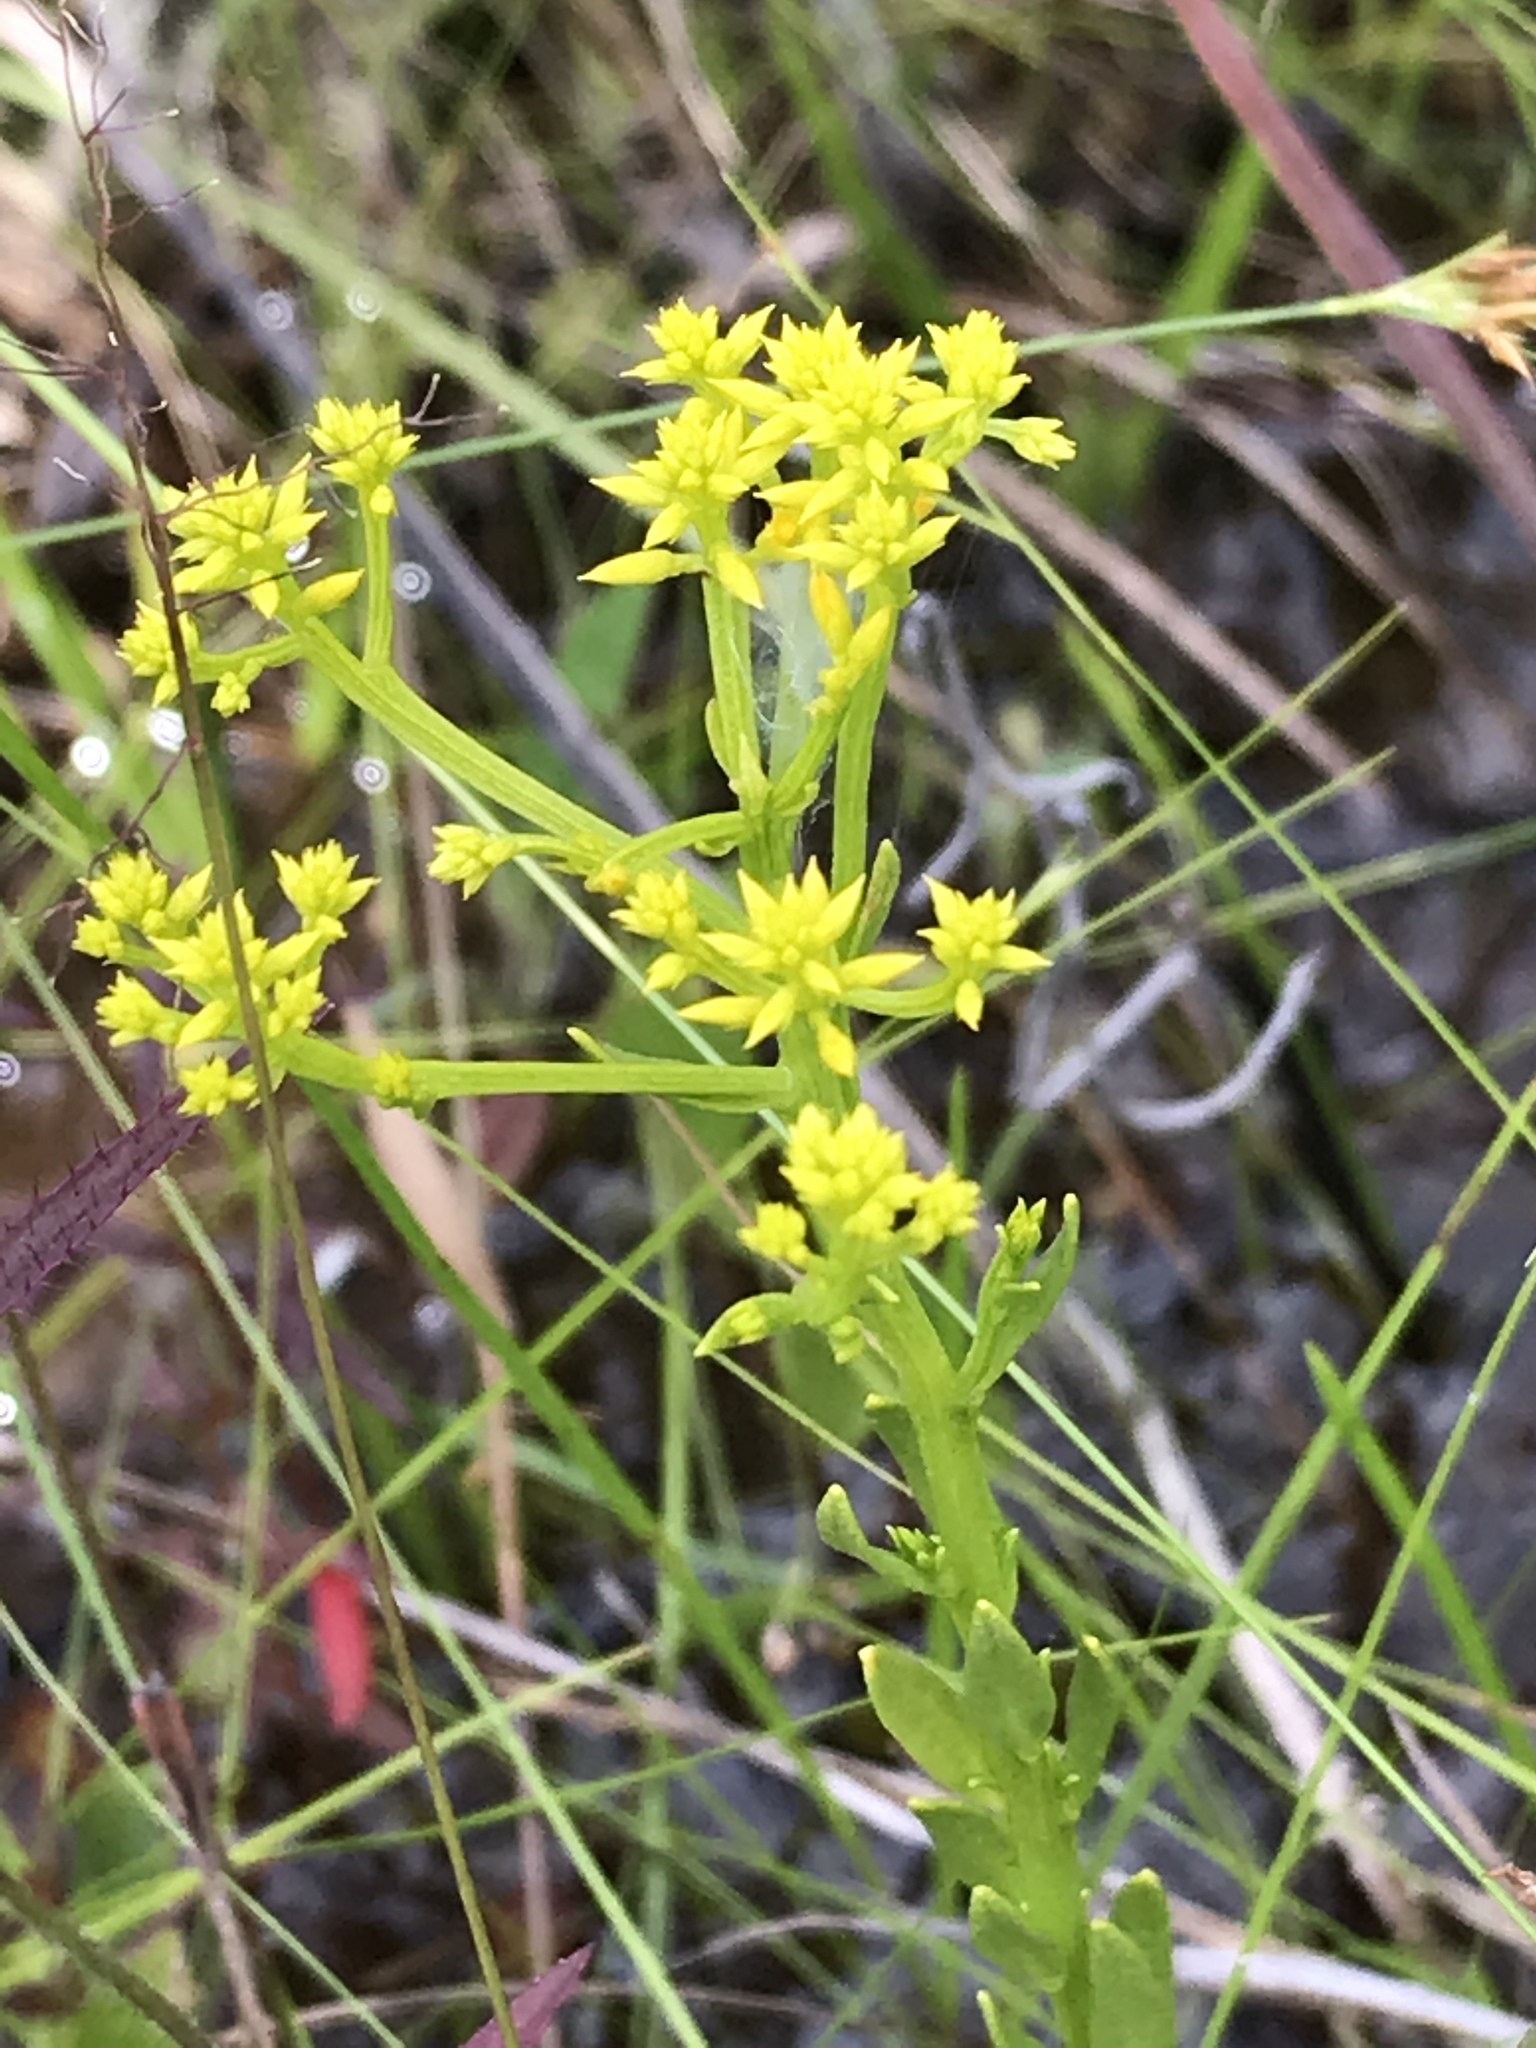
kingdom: Plantae
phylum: Tracheophyta
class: Magnoliopsida
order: Fabales
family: Polygalaceae
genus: Polygala
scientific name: Polygala ramosa
